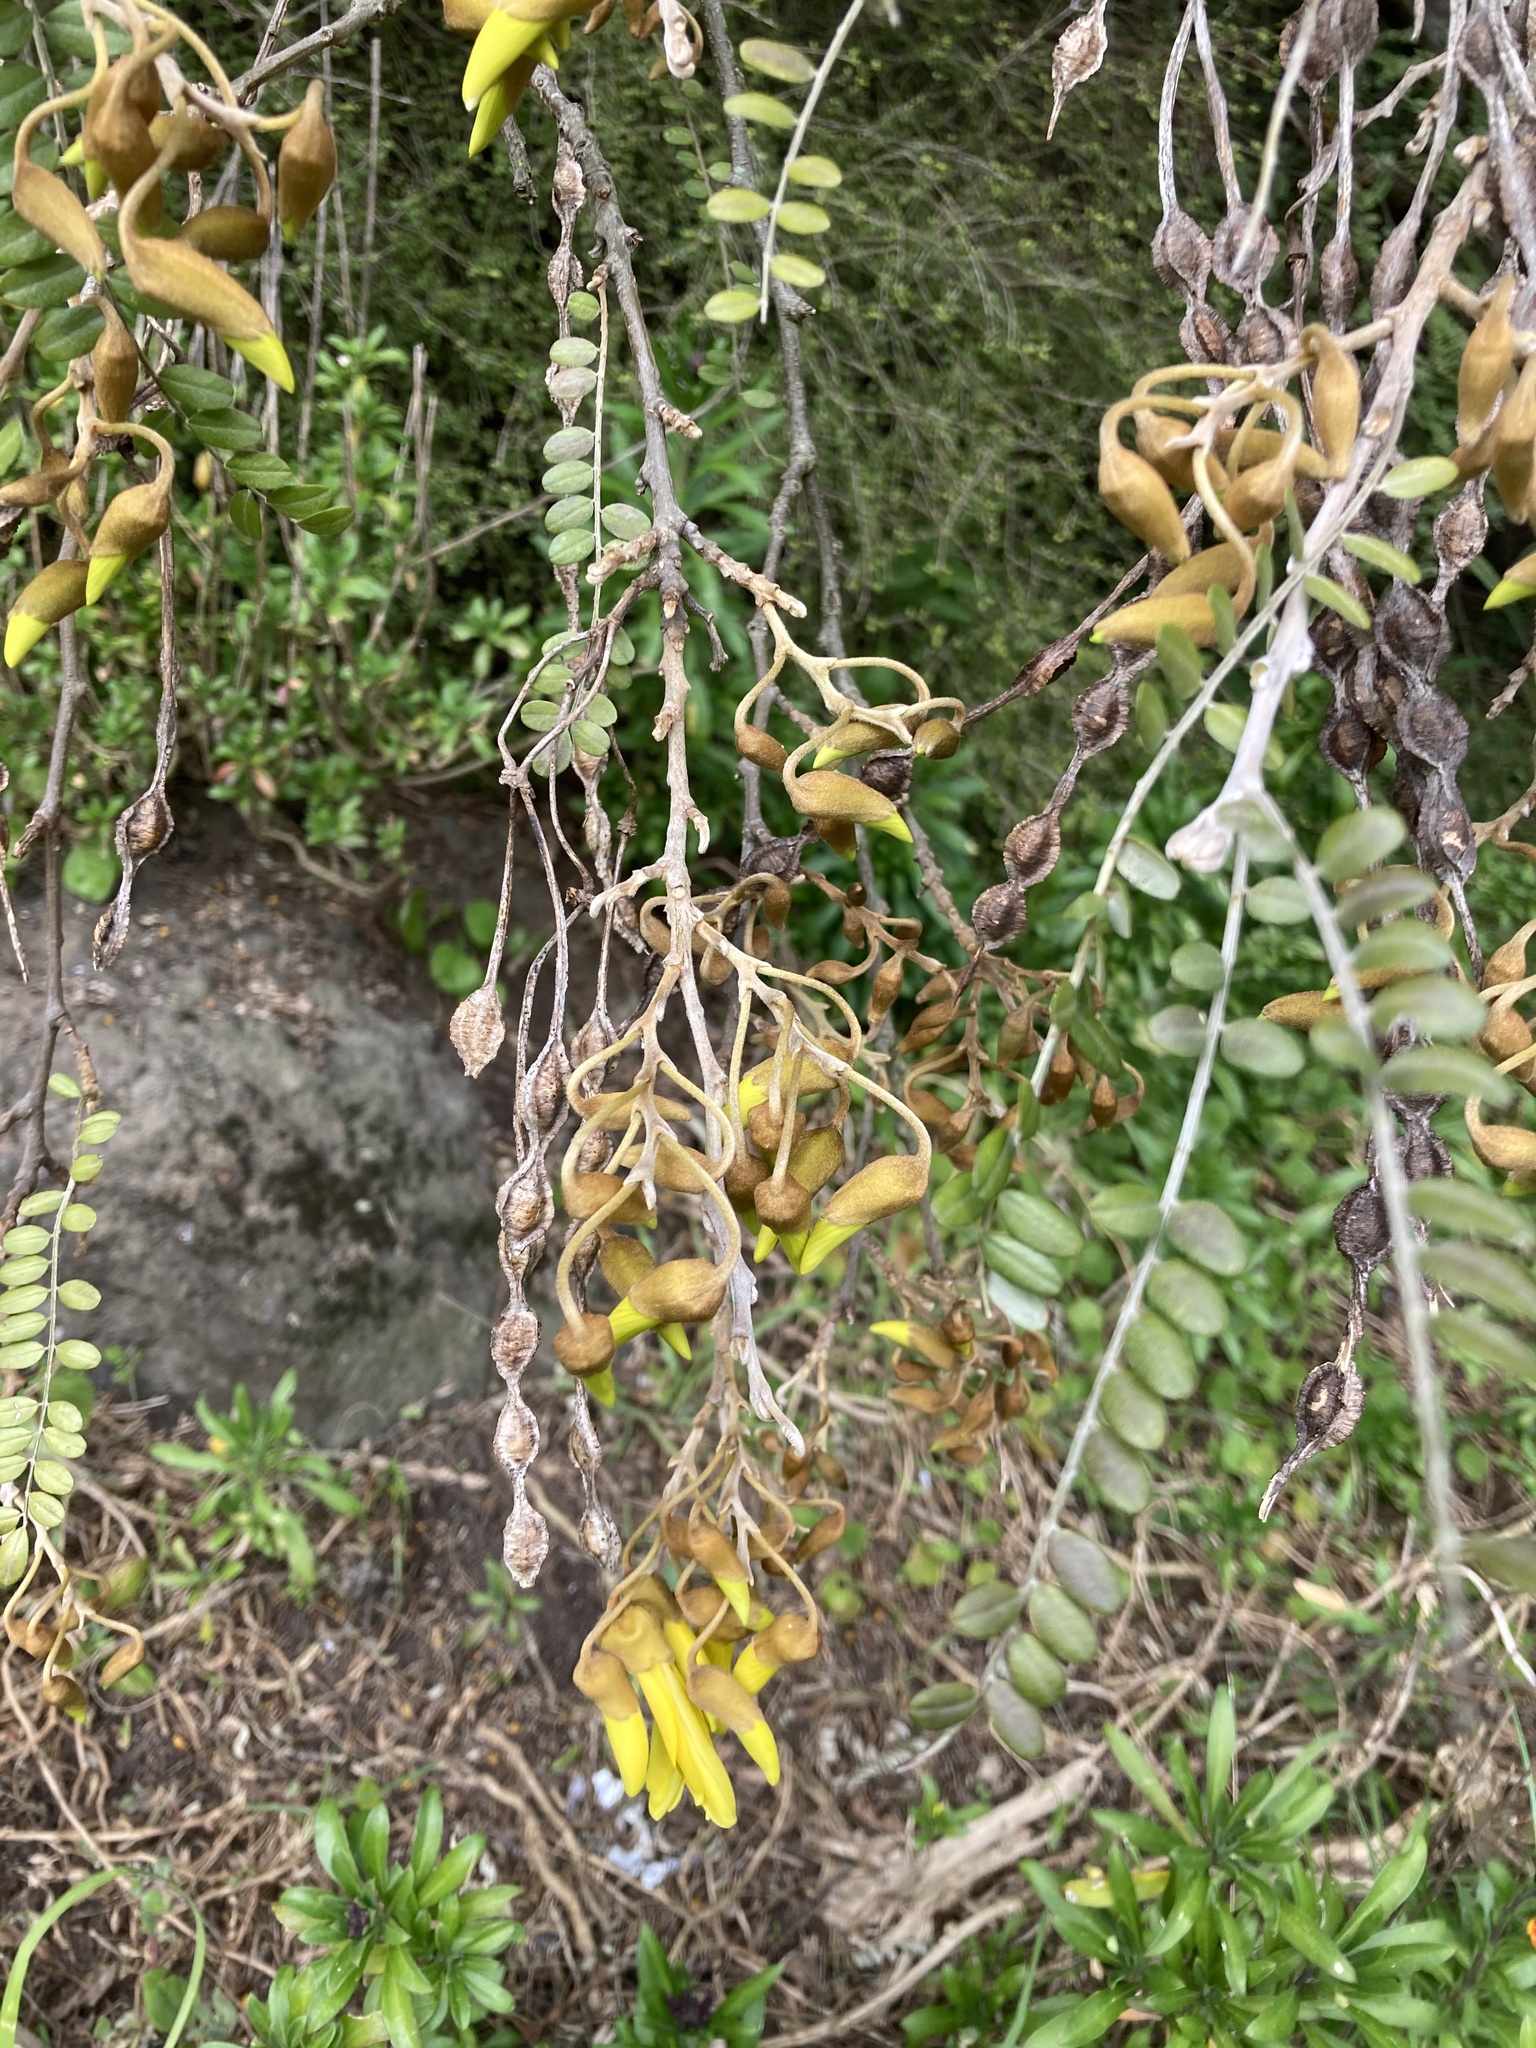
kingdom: Plantae
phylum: Tracheophyta
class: Magnoliopsida
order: Fabales
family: Fabaceae
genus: Sophora
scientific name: Sophora microphylla
